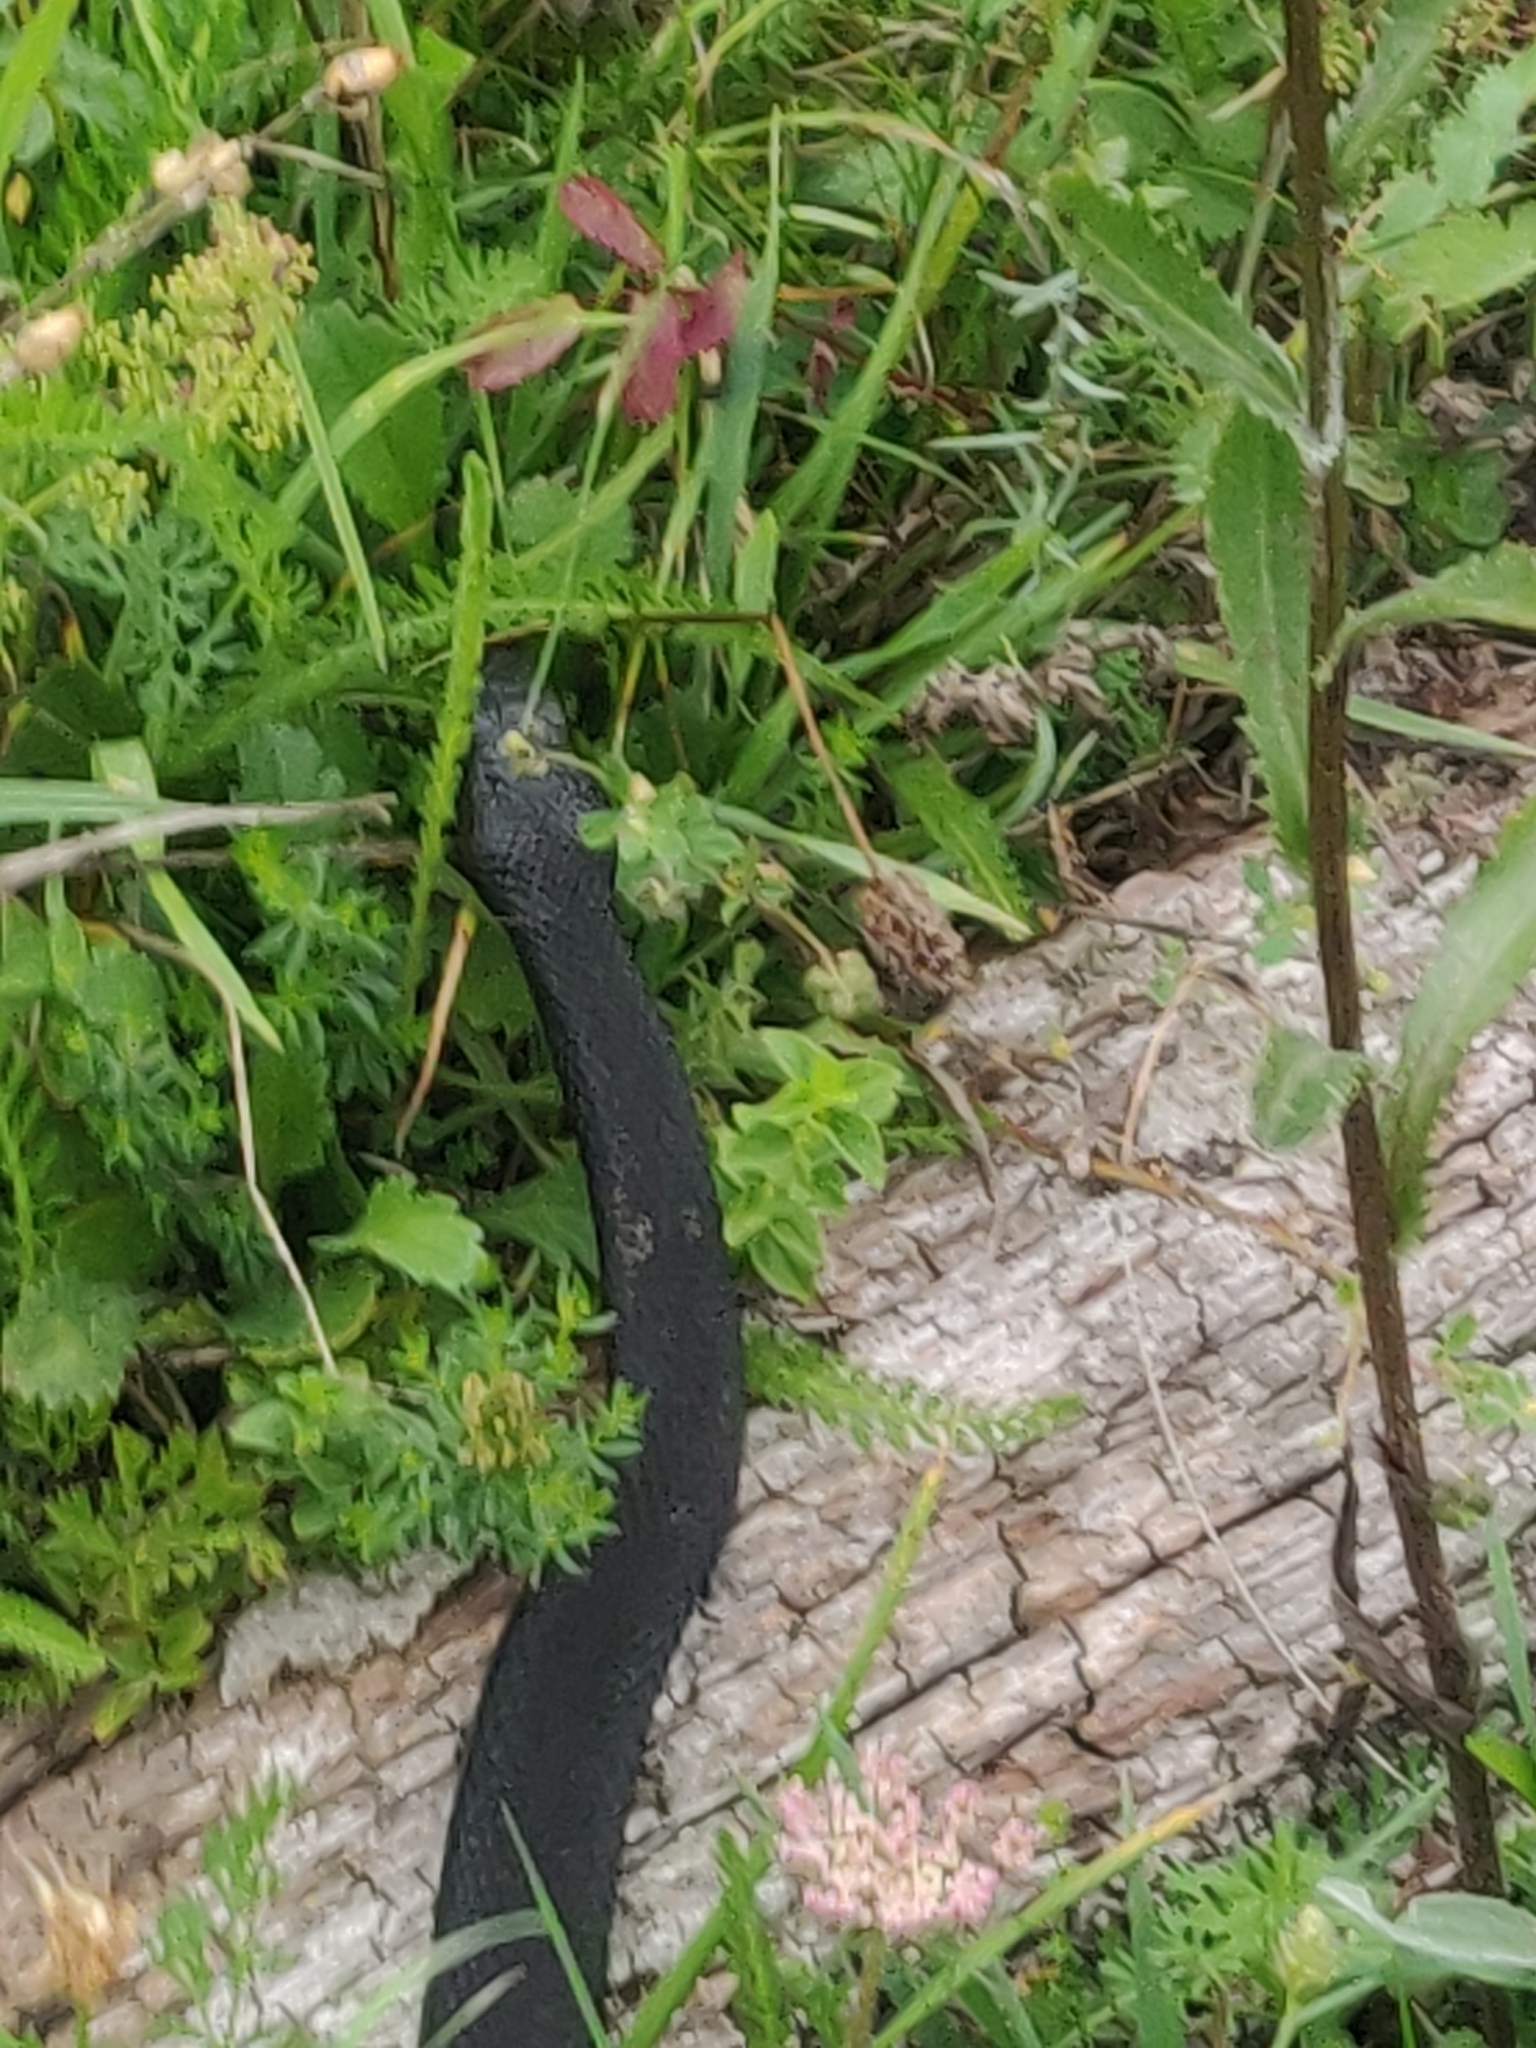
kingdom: Animalia
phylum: Chordata
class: Squamata
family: Viperidae
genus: Vipera
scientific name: Vipera berus
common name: Adder
